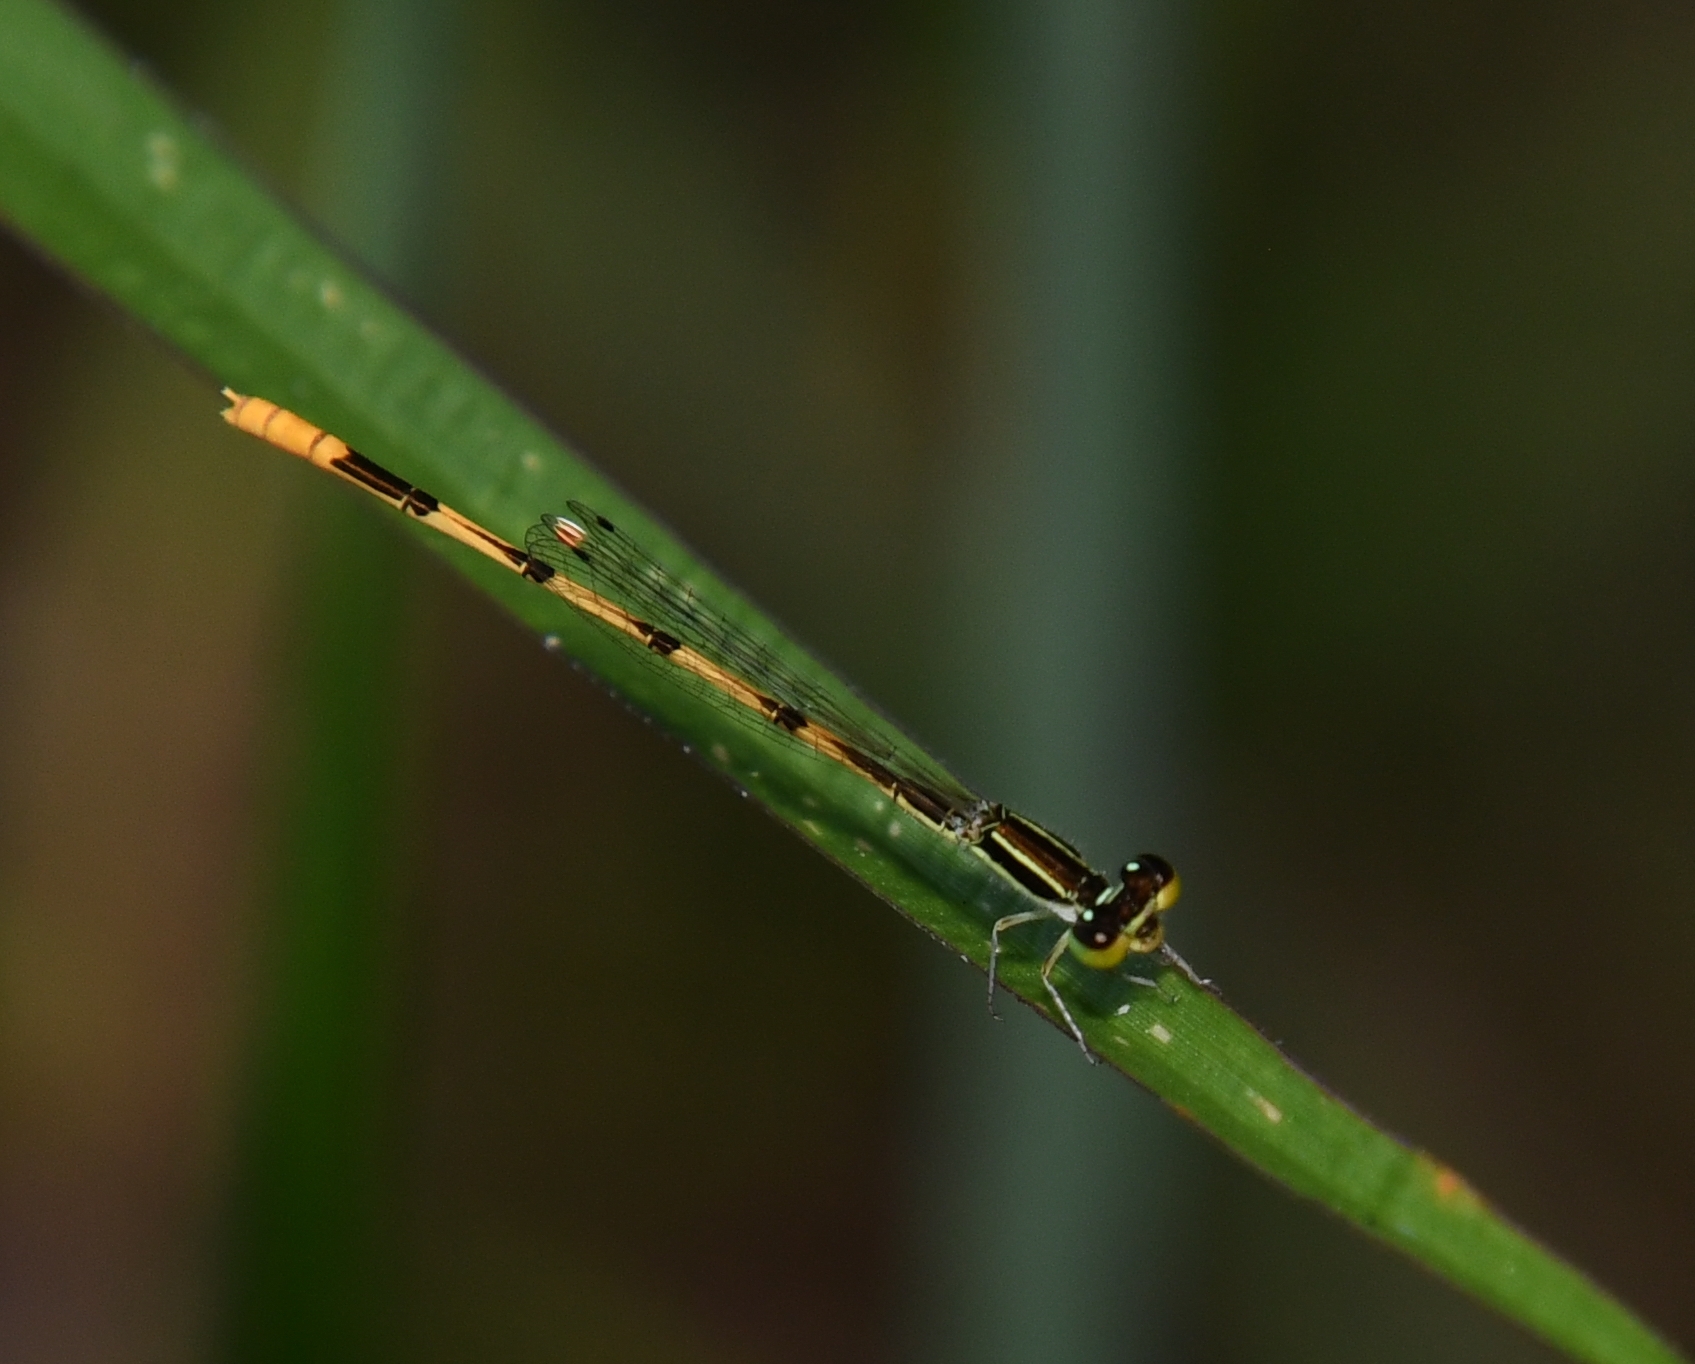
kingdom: Animalia
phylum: Arthropoda
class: Insecta
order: Odonata
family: Coenagrionidae
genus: Ischnura
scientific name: Ischnura hastata
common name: Citrine forktail
